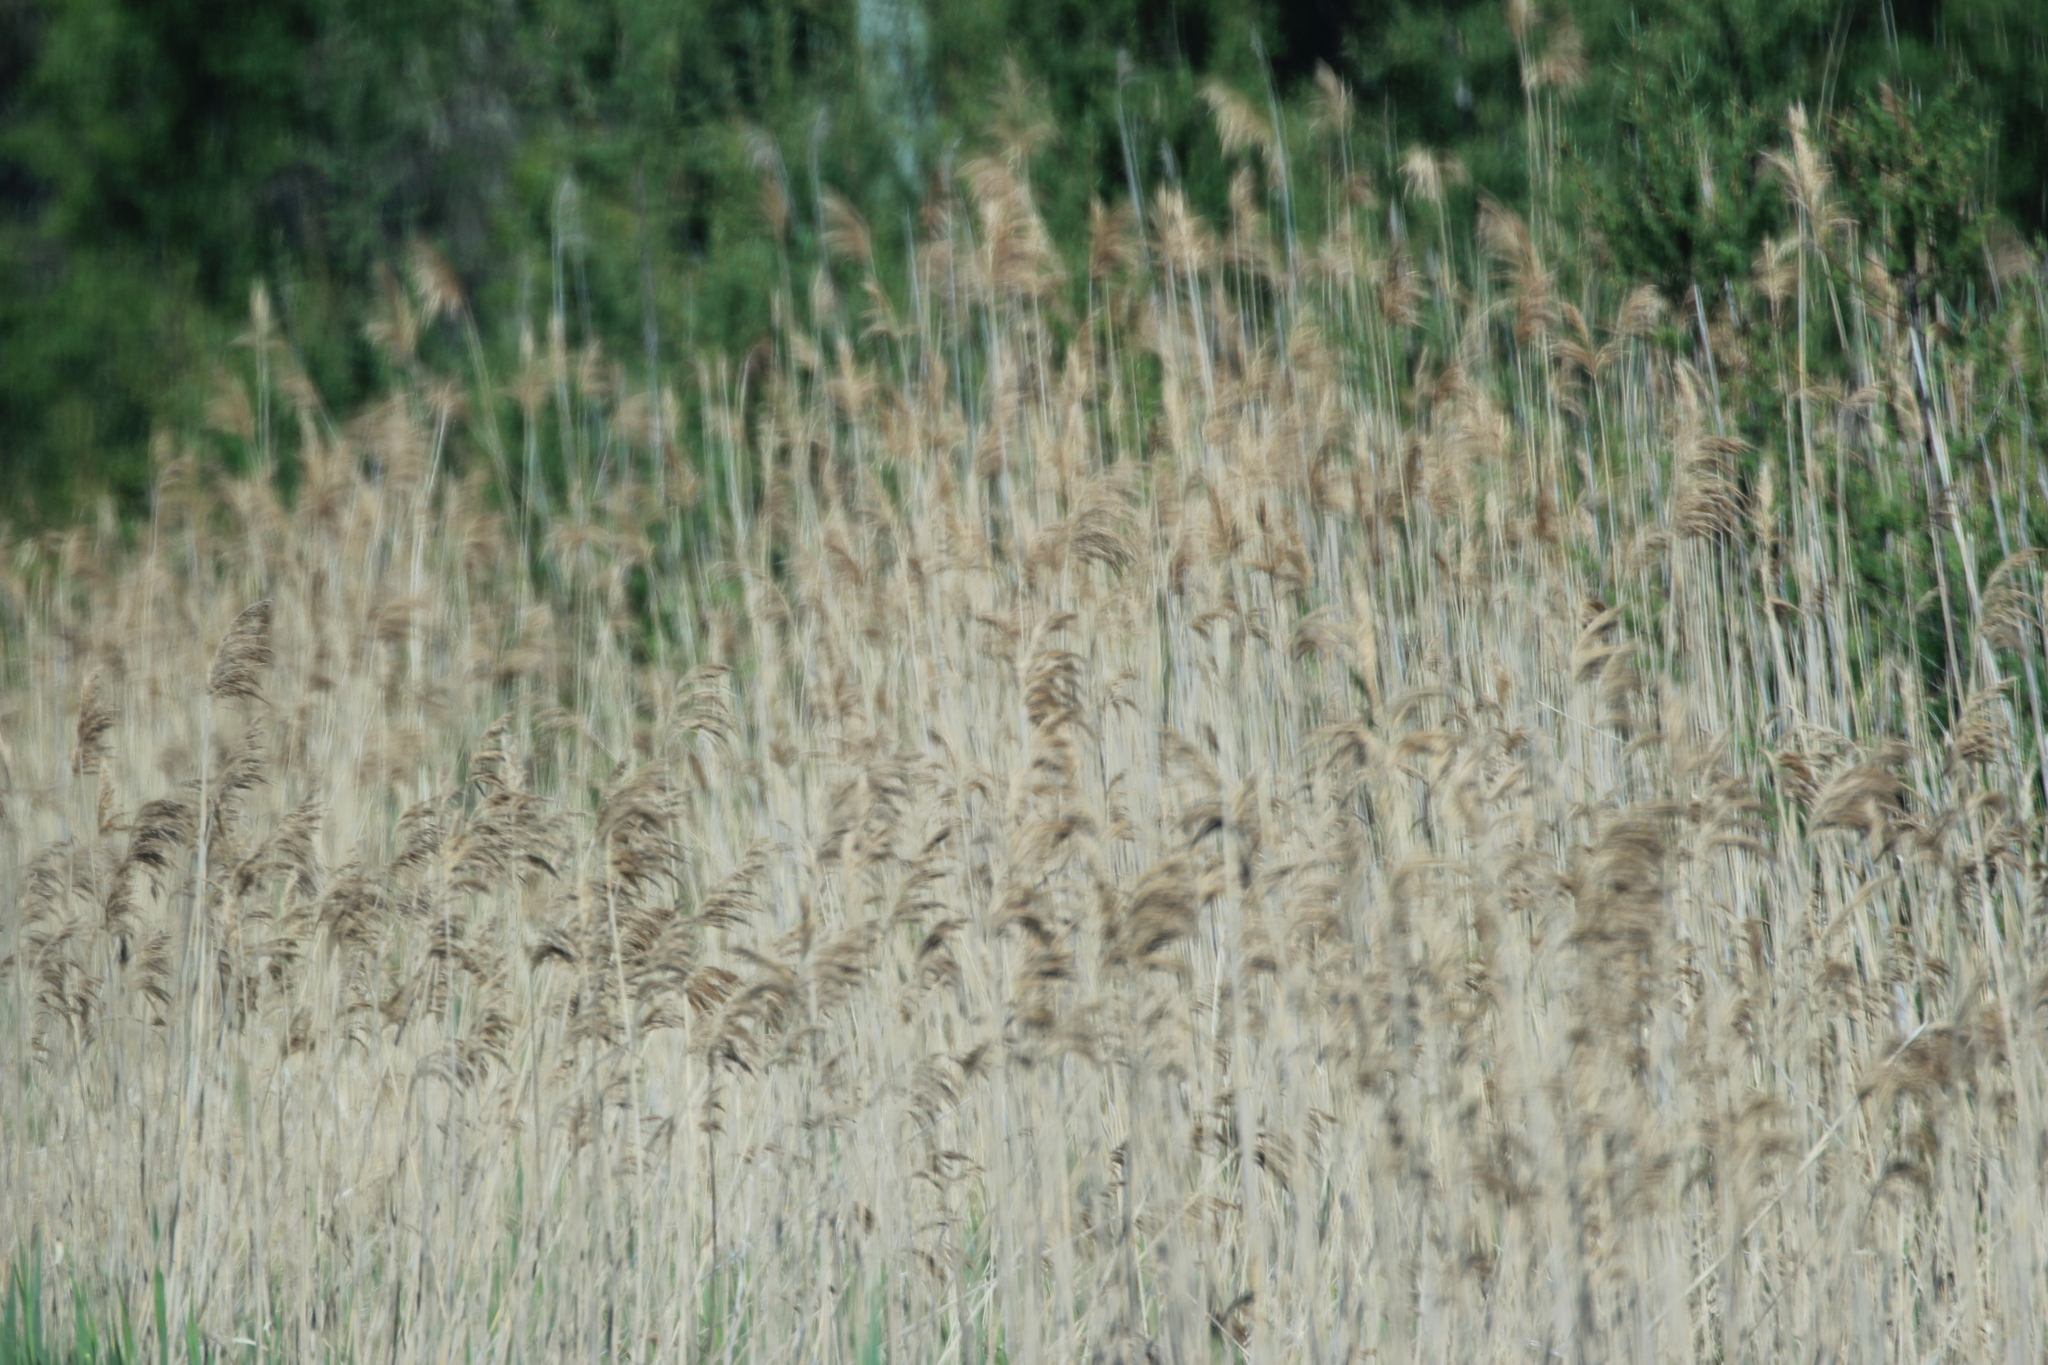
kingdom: Plantae
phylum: Tracheophyta
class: Liliopsida
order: Poales
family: Poaceae
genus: Phragmites
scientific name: Phragmites australis
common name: Common reed
